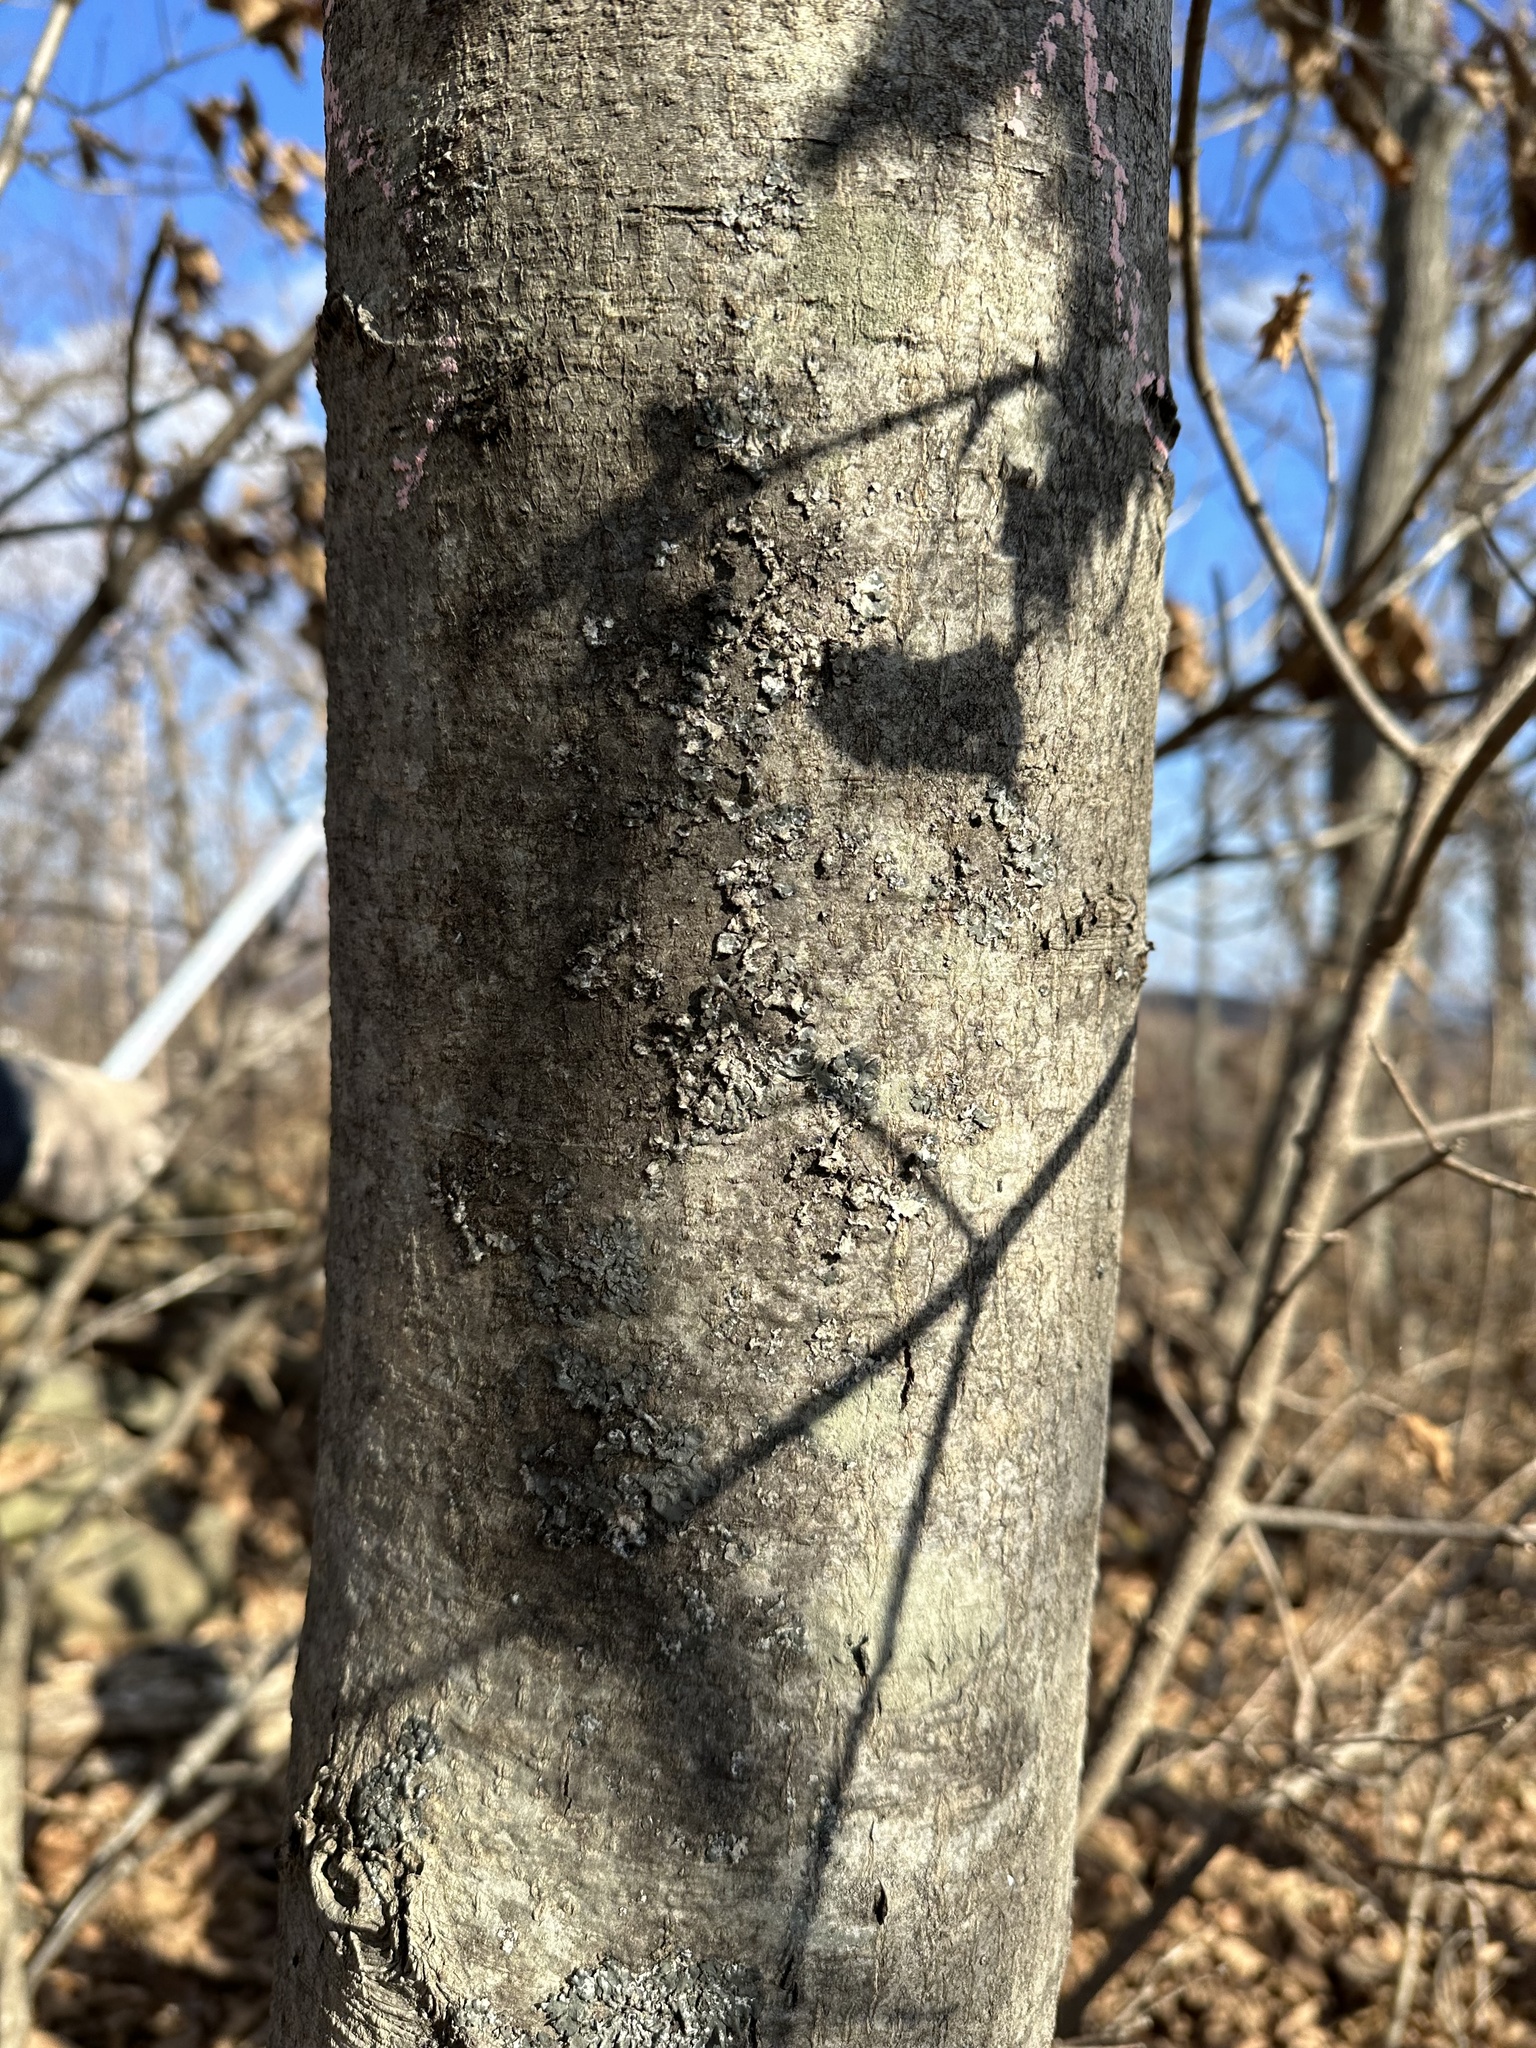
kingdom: Plantae
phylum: Tracheophyta
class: Magnoliopsida
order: Rosales
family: Rosaceae
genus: Sorbus
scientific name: Sorbus alnifolia
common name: Mountain-ash
